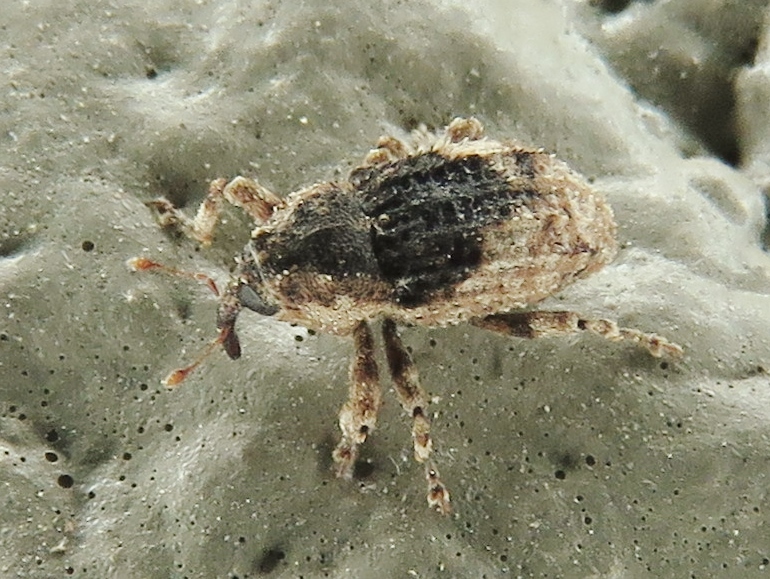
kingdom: Animalia
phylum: Arthropoda
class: Insecta
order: Coleoptera
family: Curculionidae
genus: Cophes
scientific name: Cophes fallax
